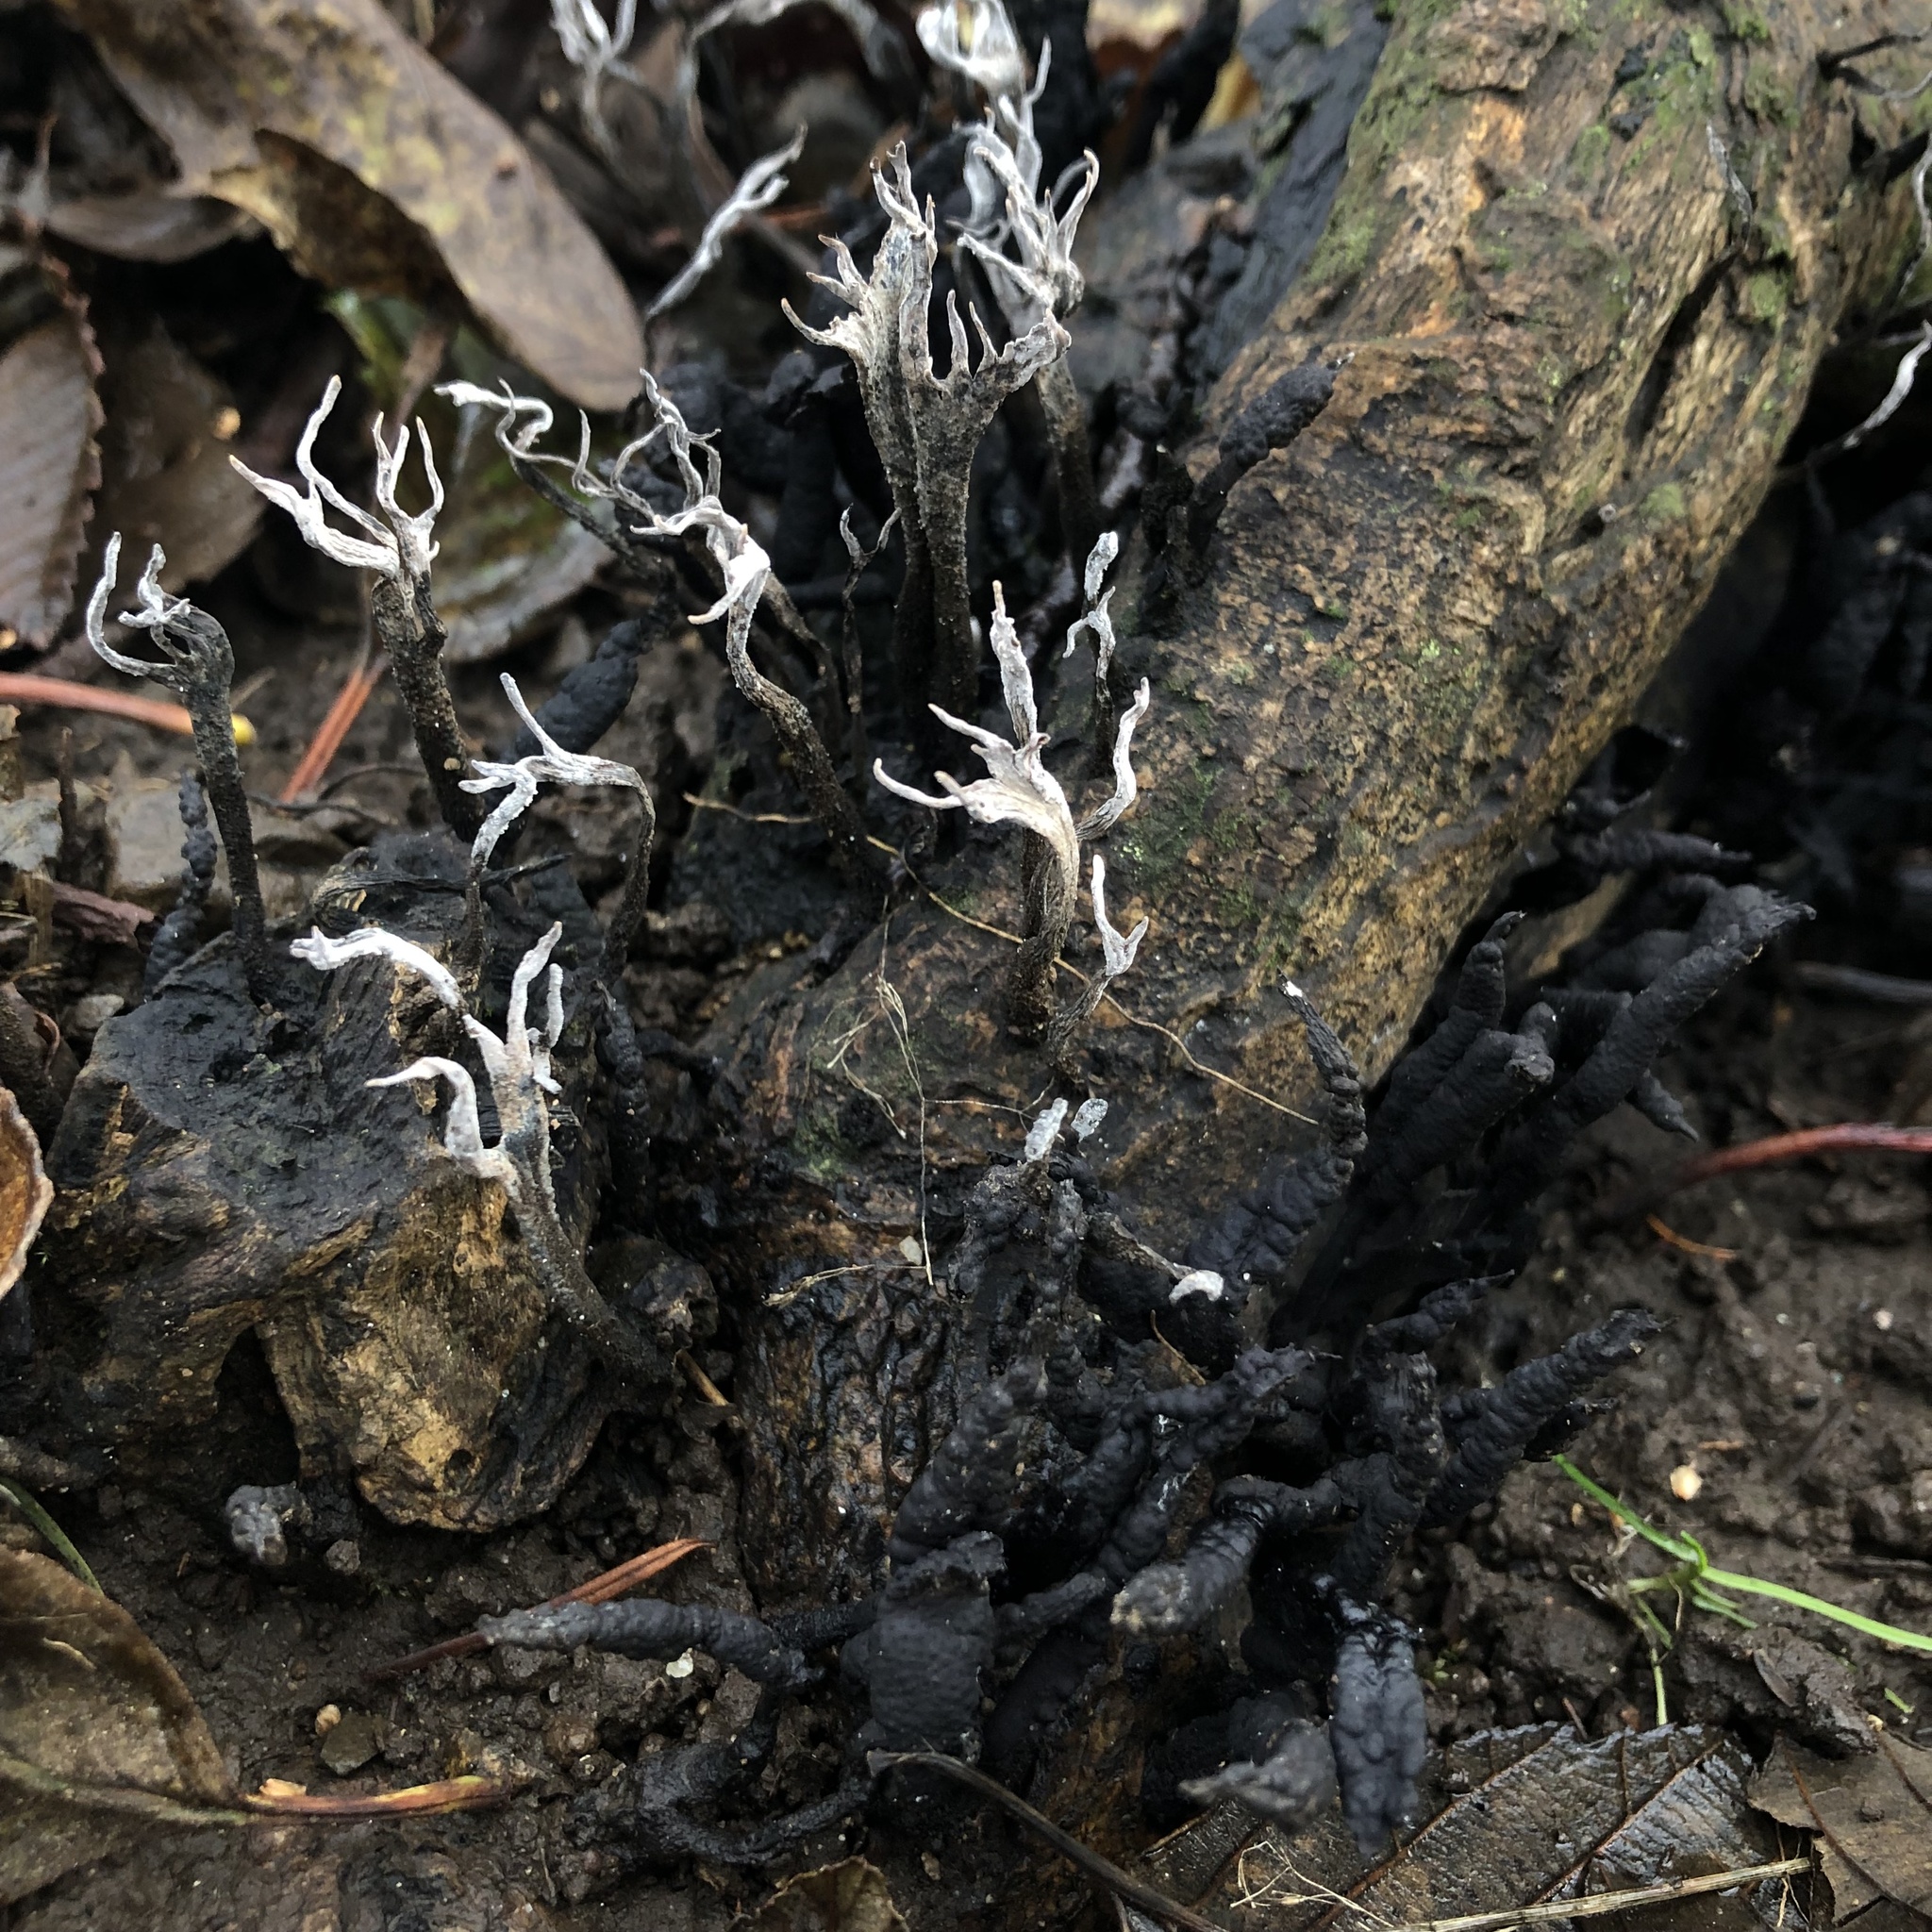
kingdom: Fungi
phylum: Ascomycota
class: Sordariomycetes
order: Xylariales
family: Xylariaceae
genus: Xylaria
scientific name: Xylaria hypoxylon
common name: Candle-snuff fungus
